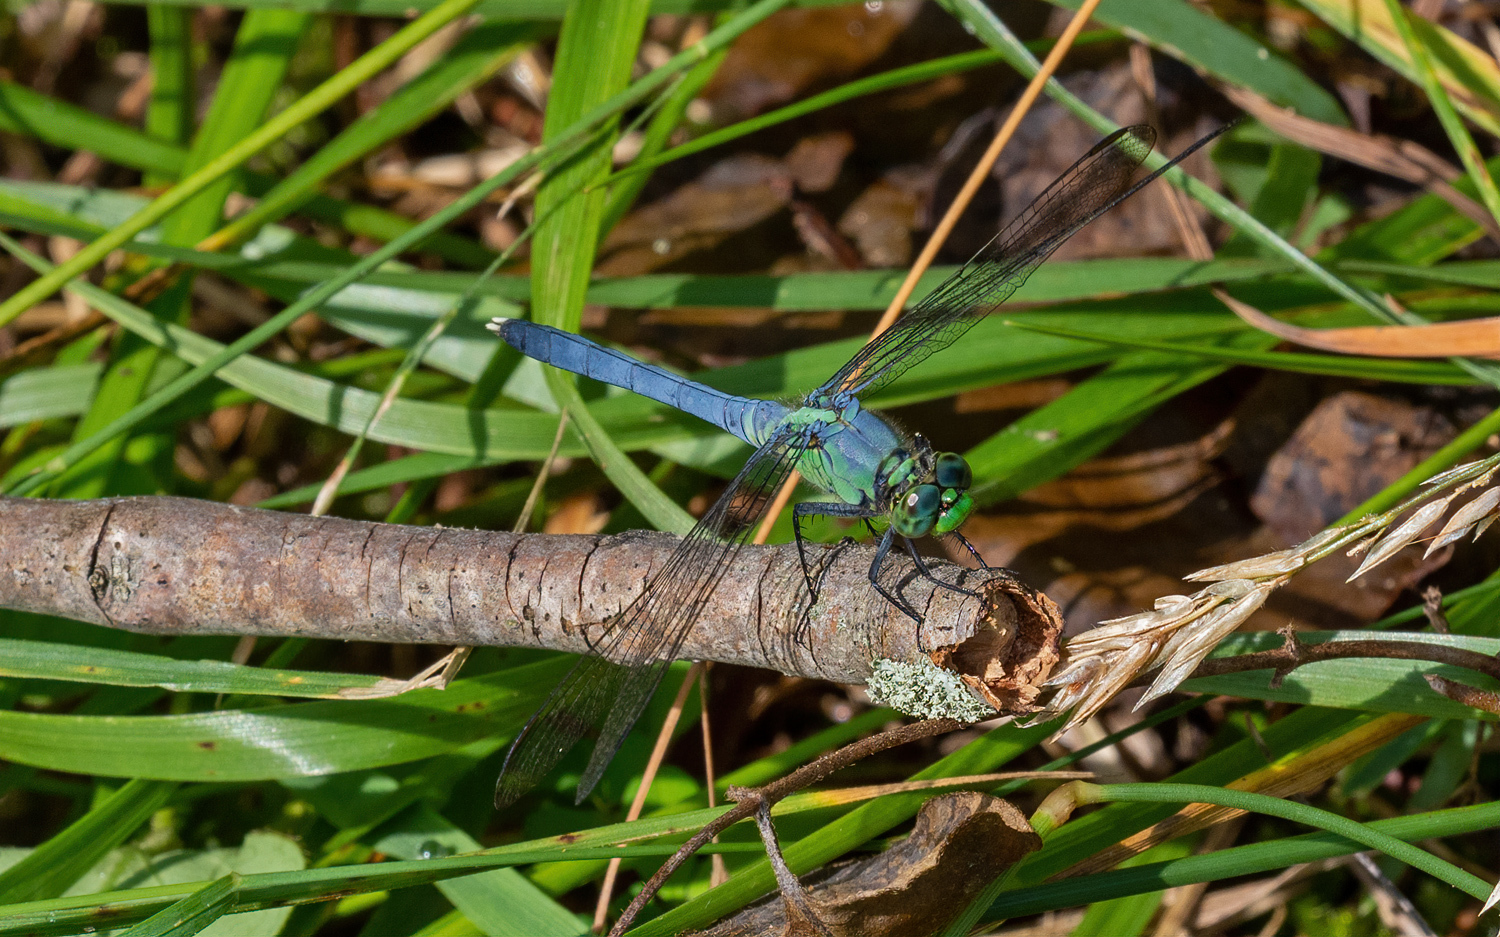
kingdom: Animalia
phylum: Arthropoda
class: Insecta
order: Odonata
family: Libellulidae
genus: Erythemis
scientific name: Erythemis simplicicollis
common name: Eastern pondhawk
